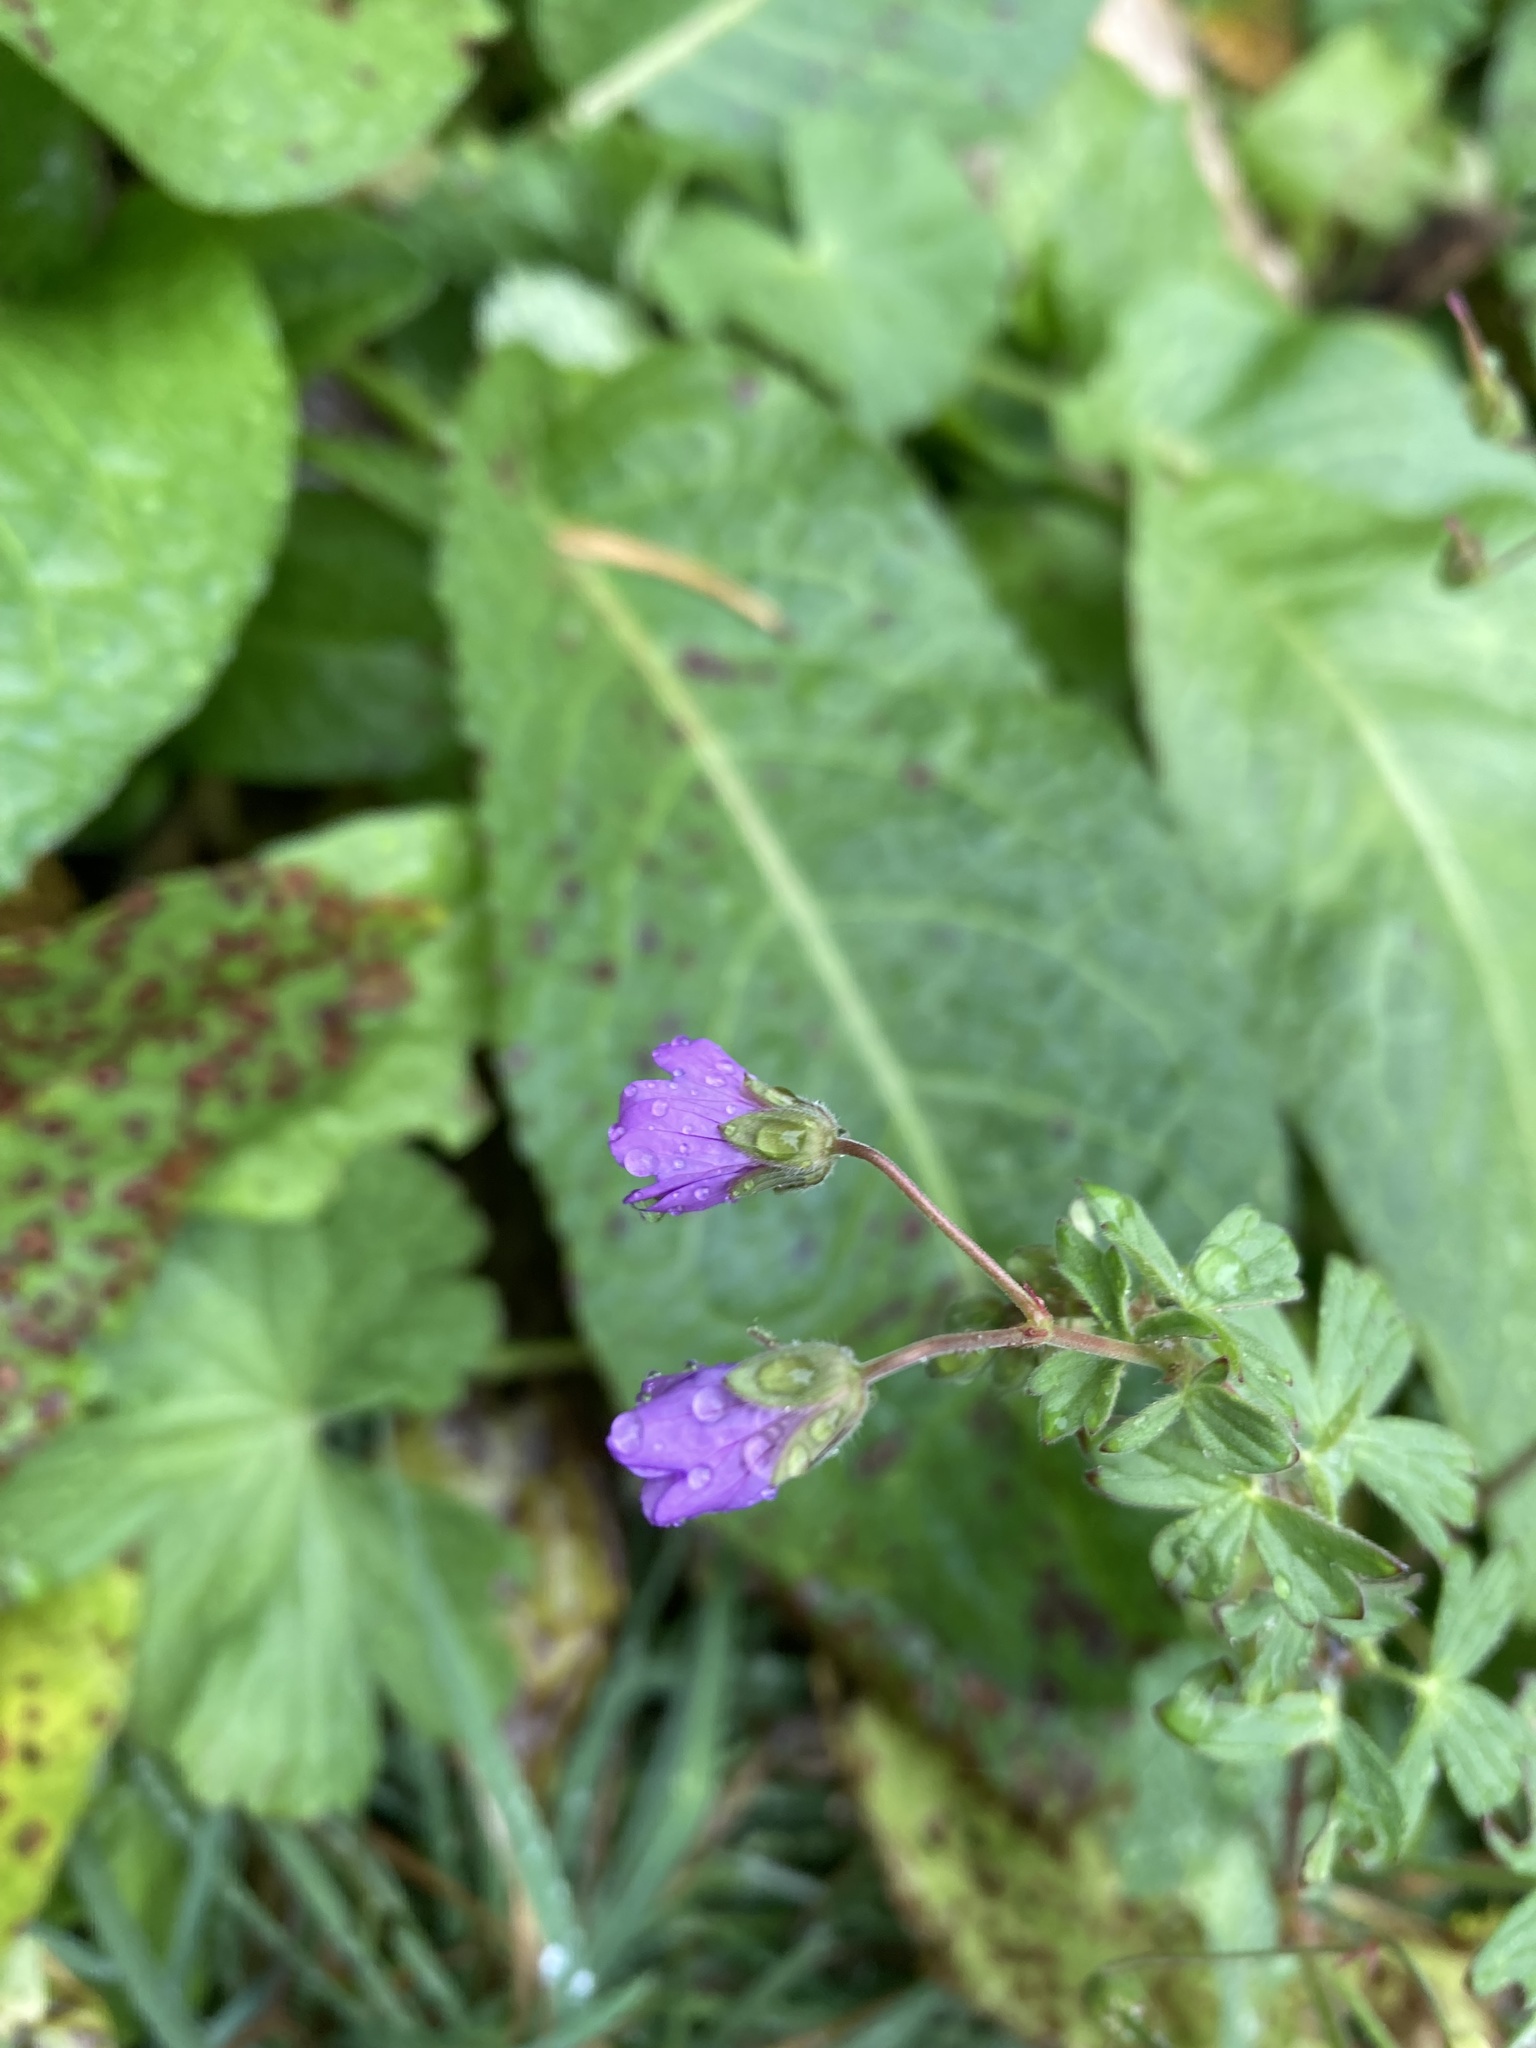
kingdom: Plantae
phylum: Tracheophyta
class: Magnoliopsida
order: Geraniales
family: Geraniaceae
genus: Geranium
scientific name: Geranium pyrenaicum
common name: Hedgerow crane's-bill
